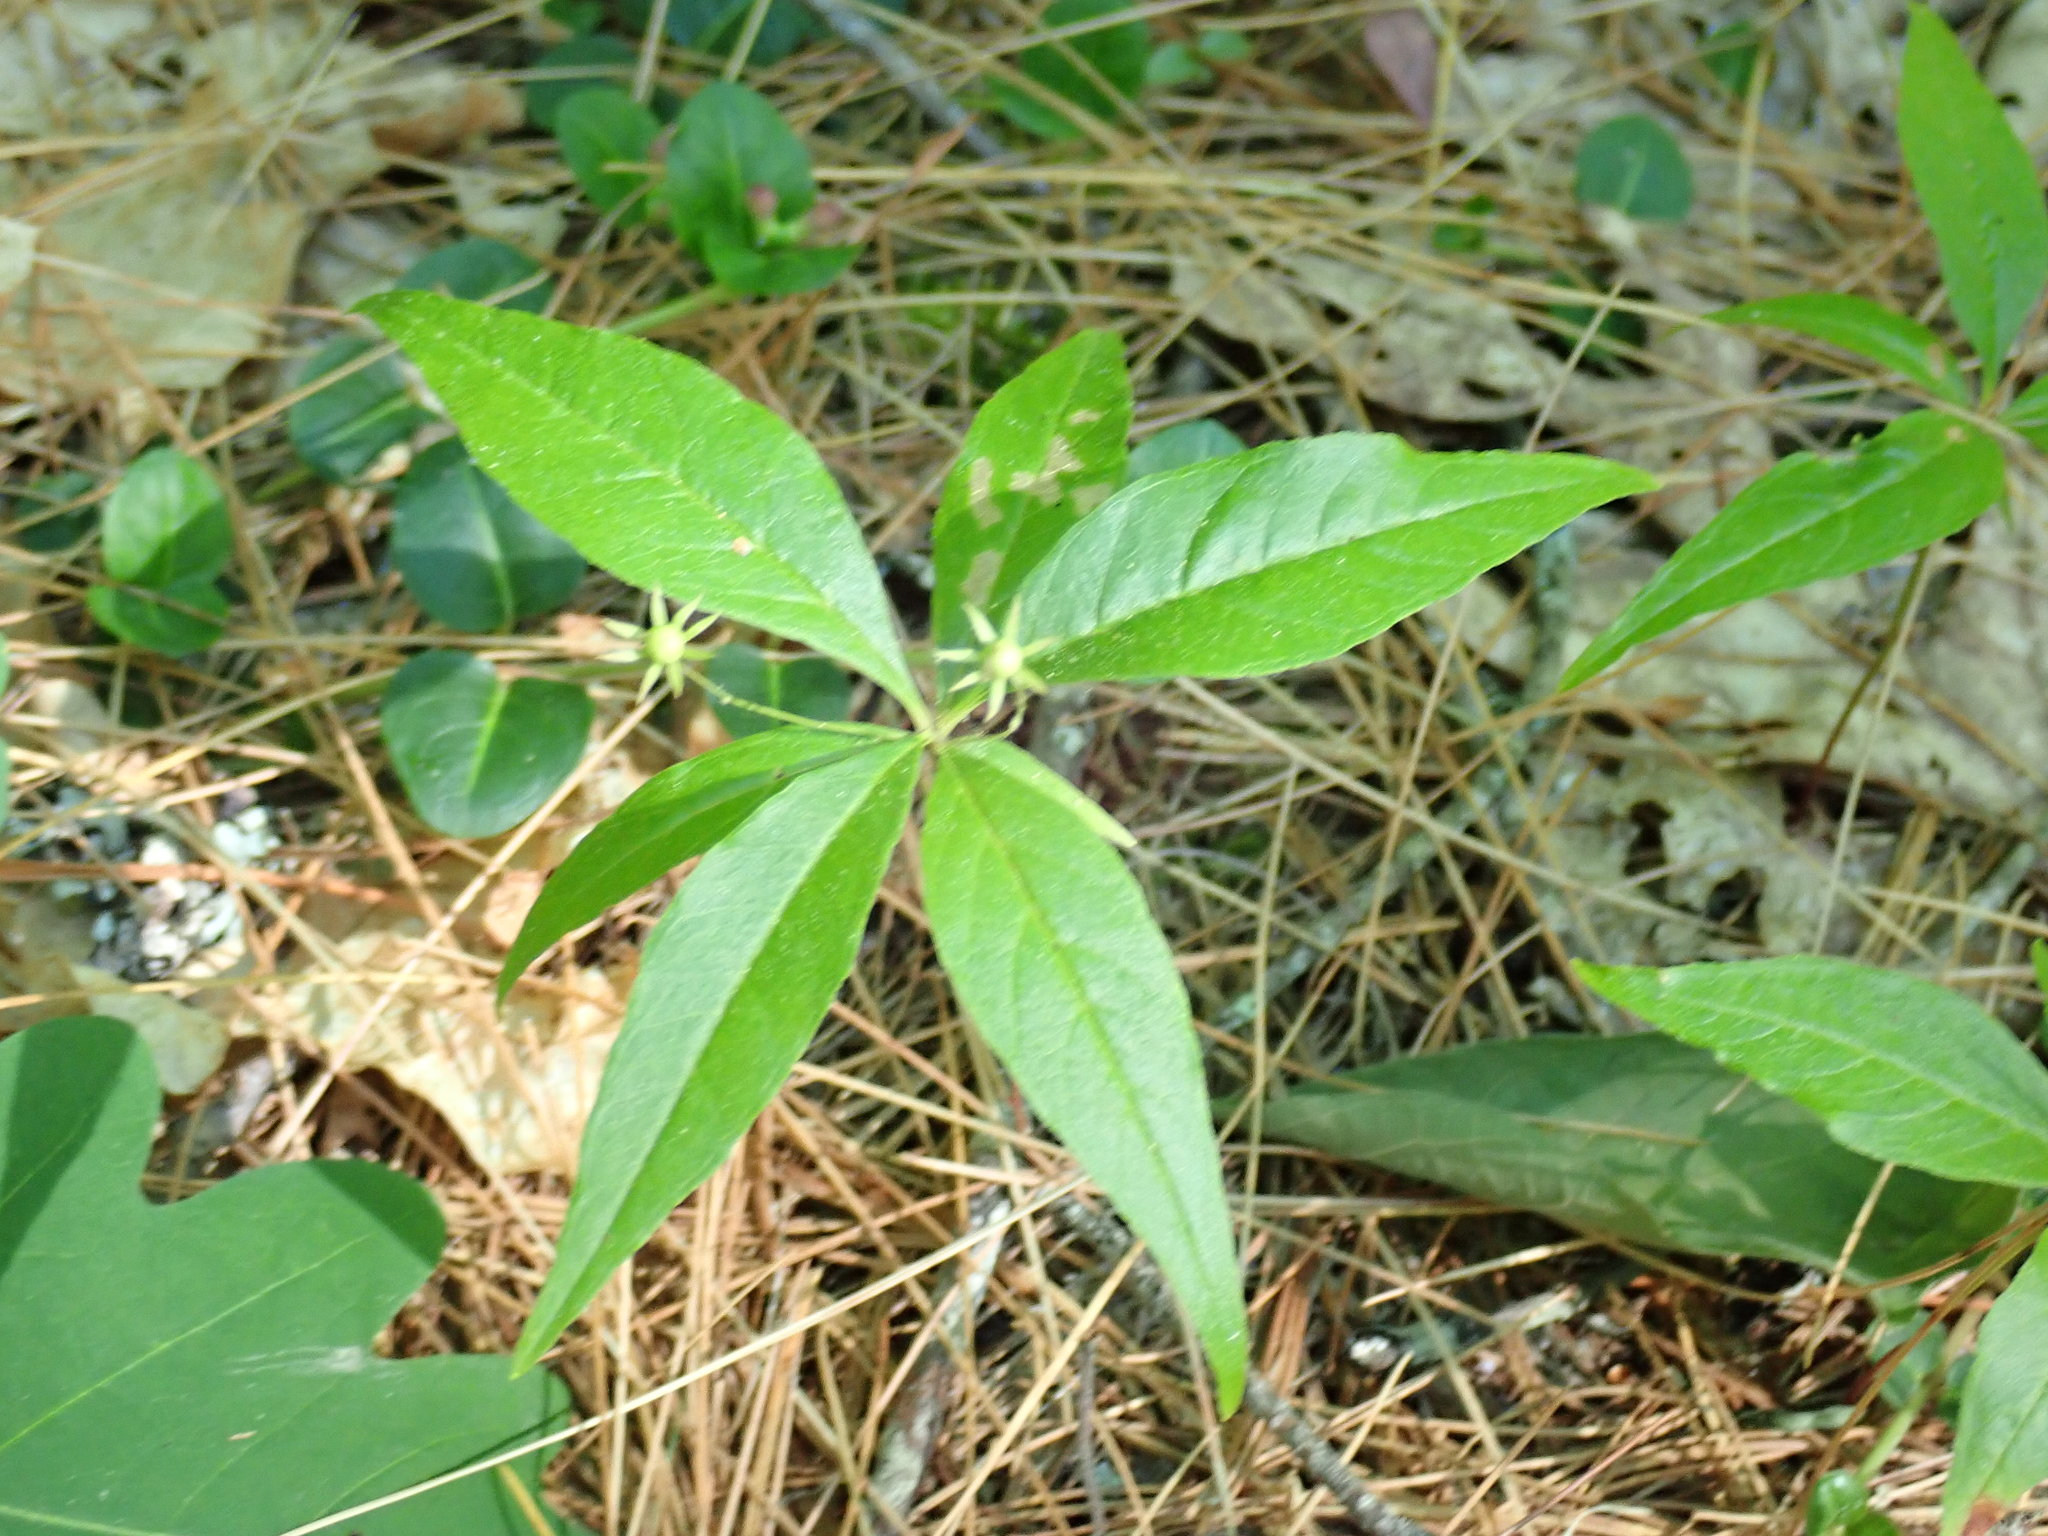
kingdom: Plantae
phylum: Tracheophyta
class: Magnoliopsida
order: Ericales
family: Primulaceae
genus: Lysimachia
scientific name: Lysimachia borealis
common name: American starflower
